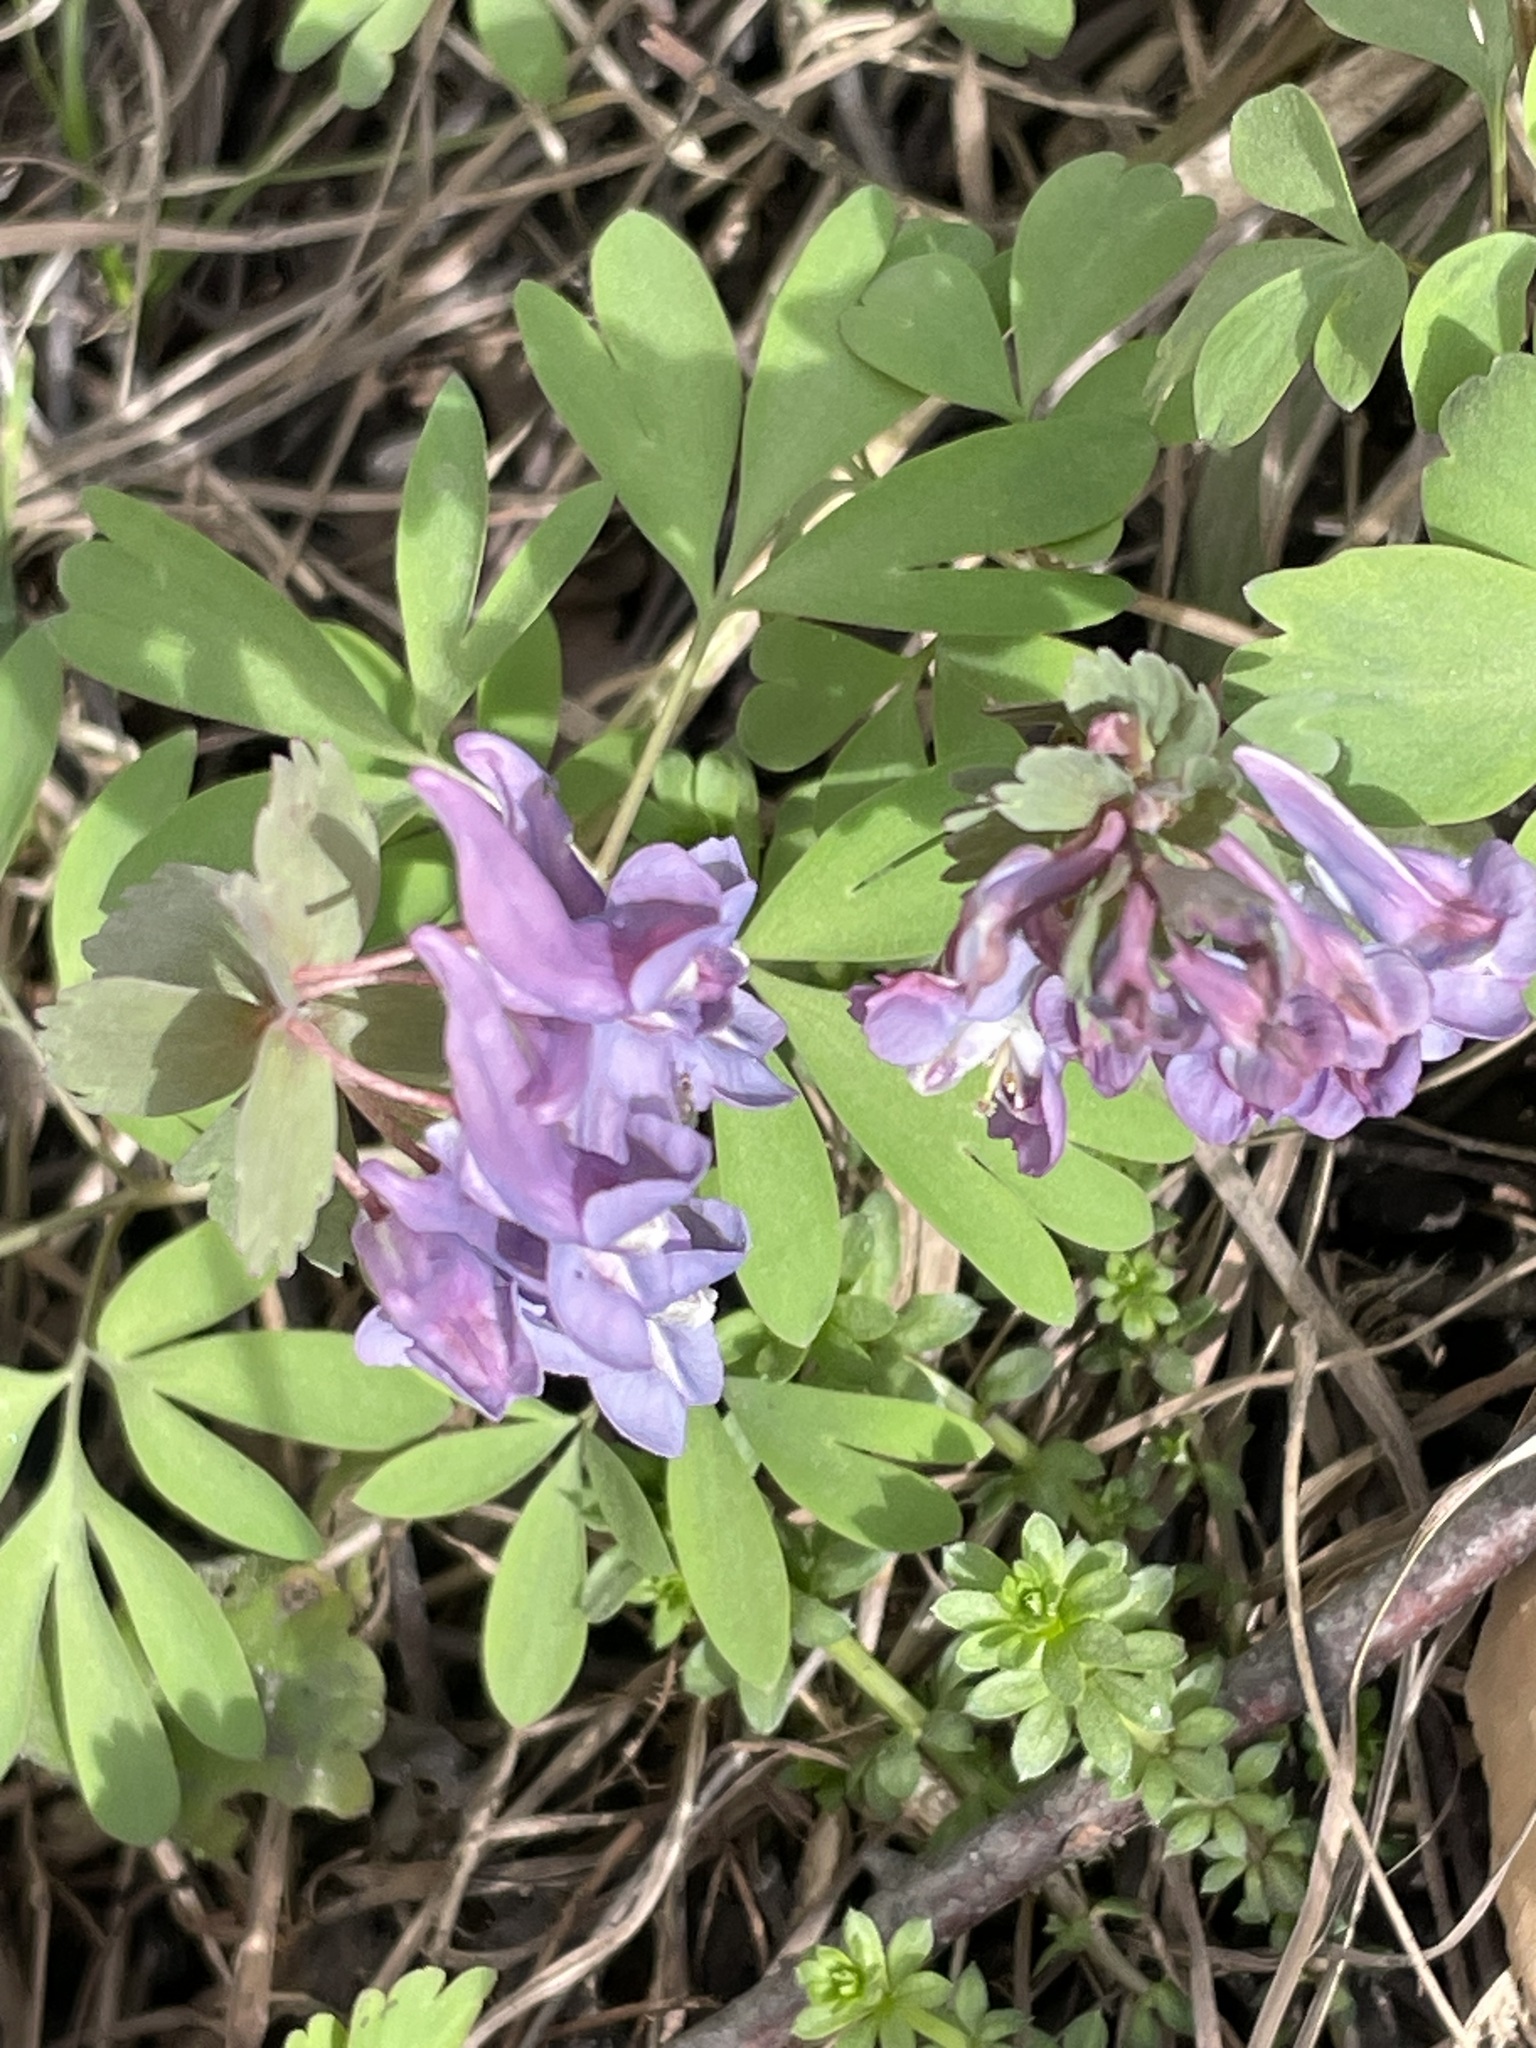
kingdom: Plantae
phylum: Tracheophyta
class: Magnoliopsida
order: Ranunculales
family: Papaveraceae
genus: Corydalis
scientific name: Corydalis solida
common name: Bird-in-a-bush
